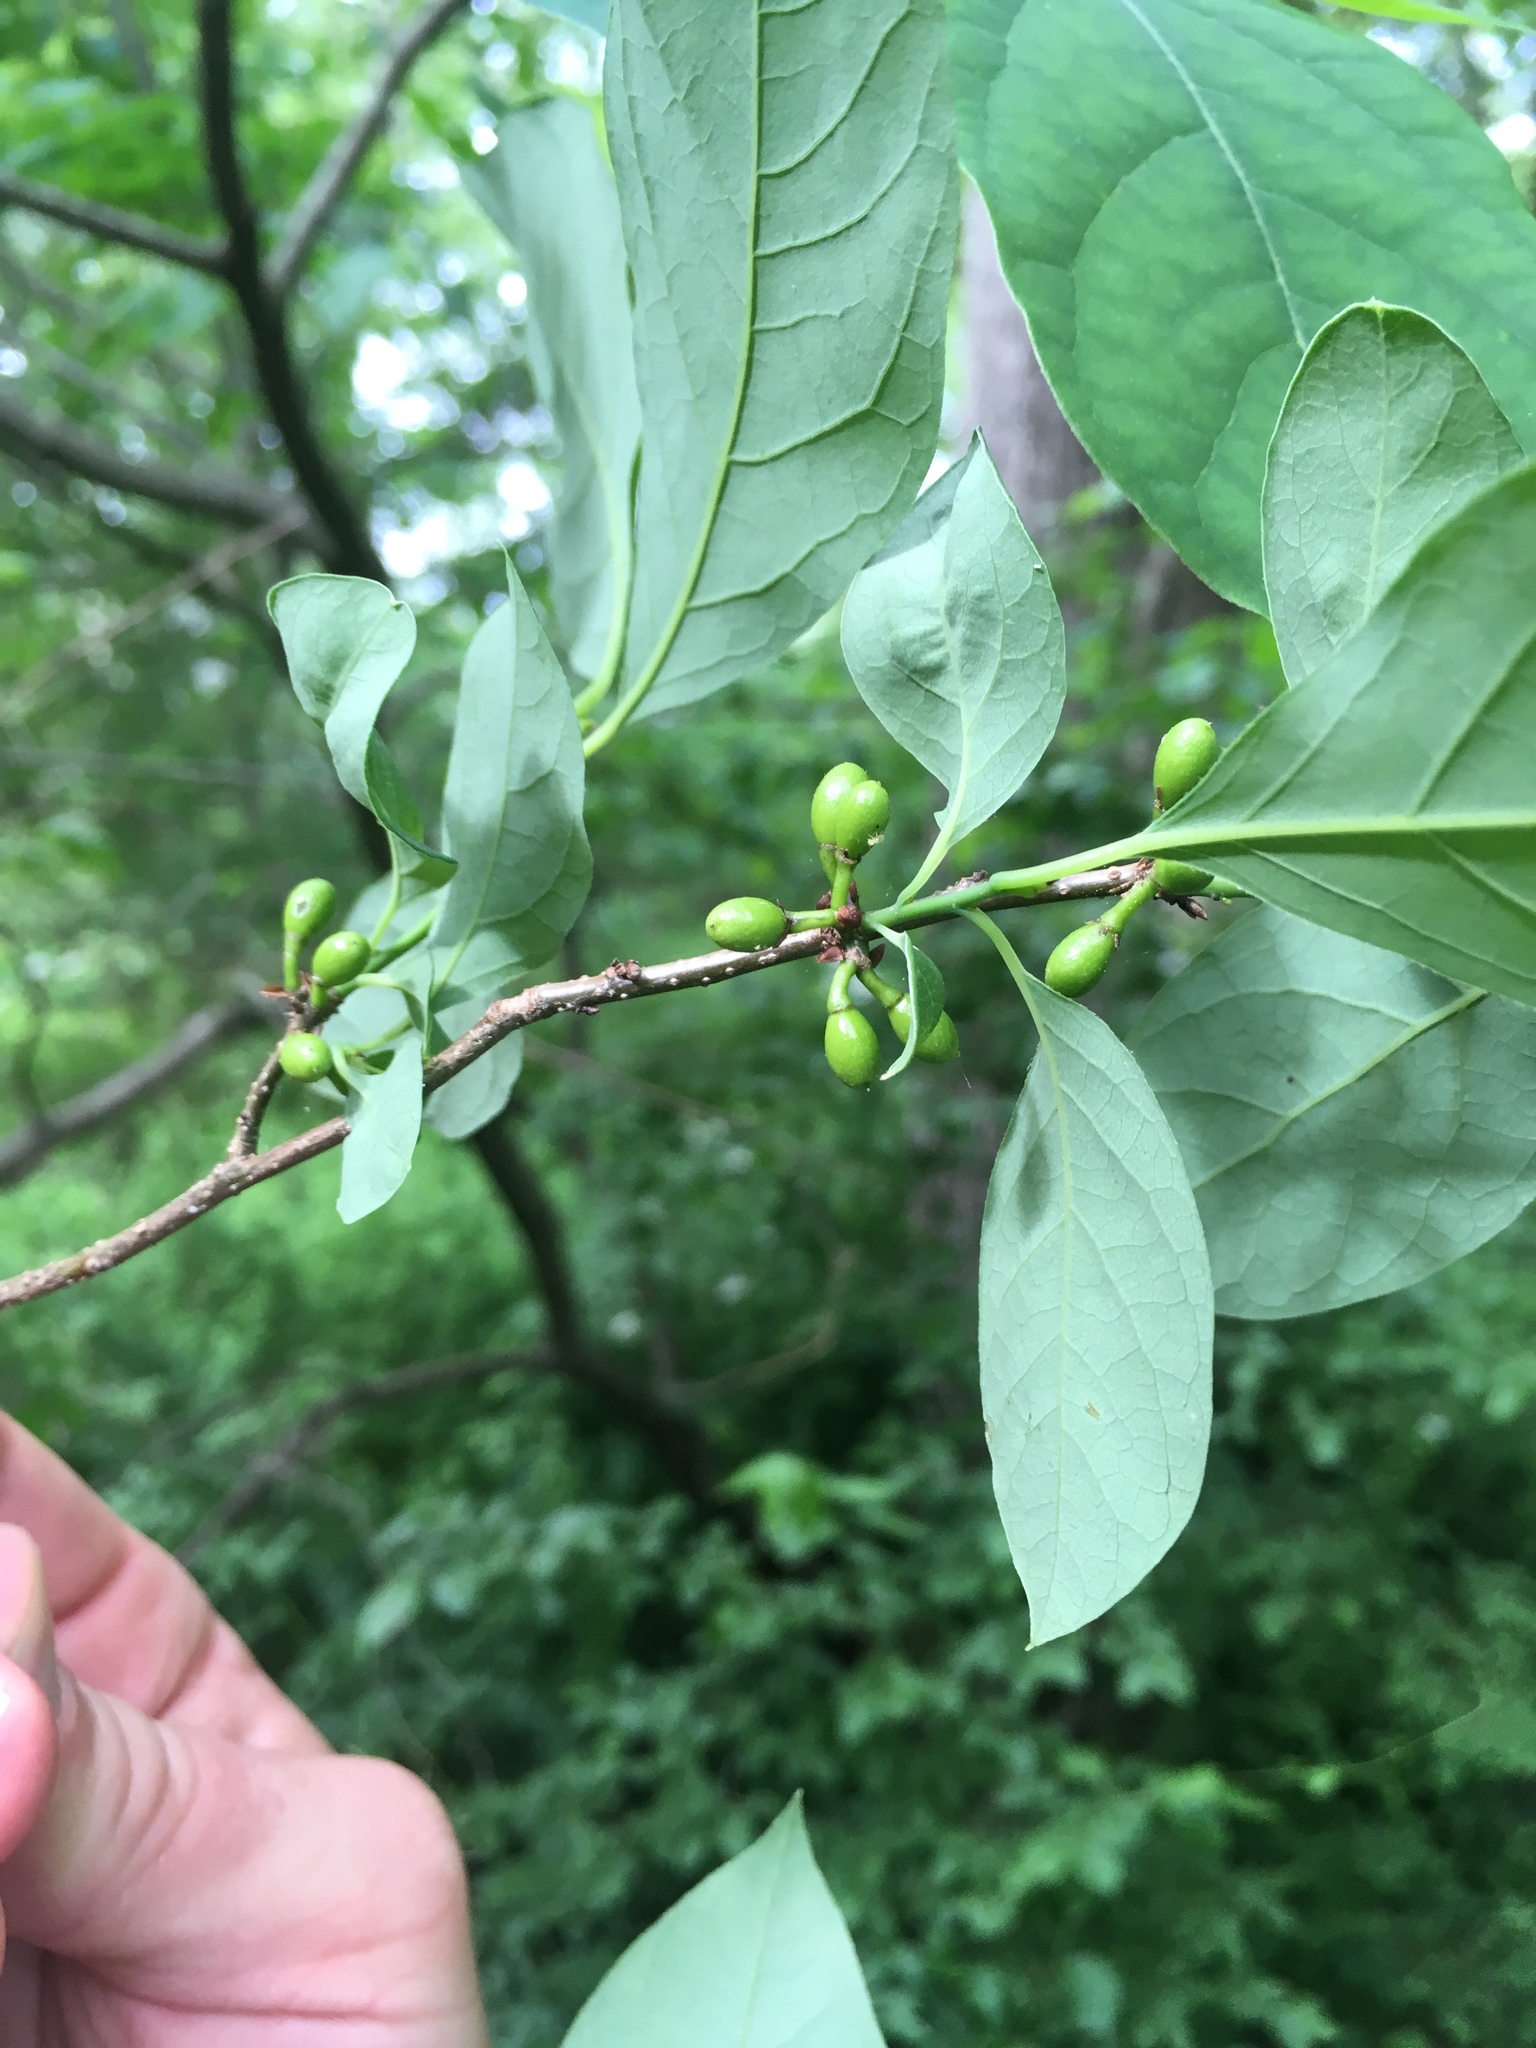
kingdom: Plantae
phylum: Tracheophyta
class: Magnoliopsida
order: Laurales
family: Lauraceae
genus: Lindera
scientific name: Lindera benzoin
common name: Spicebush
